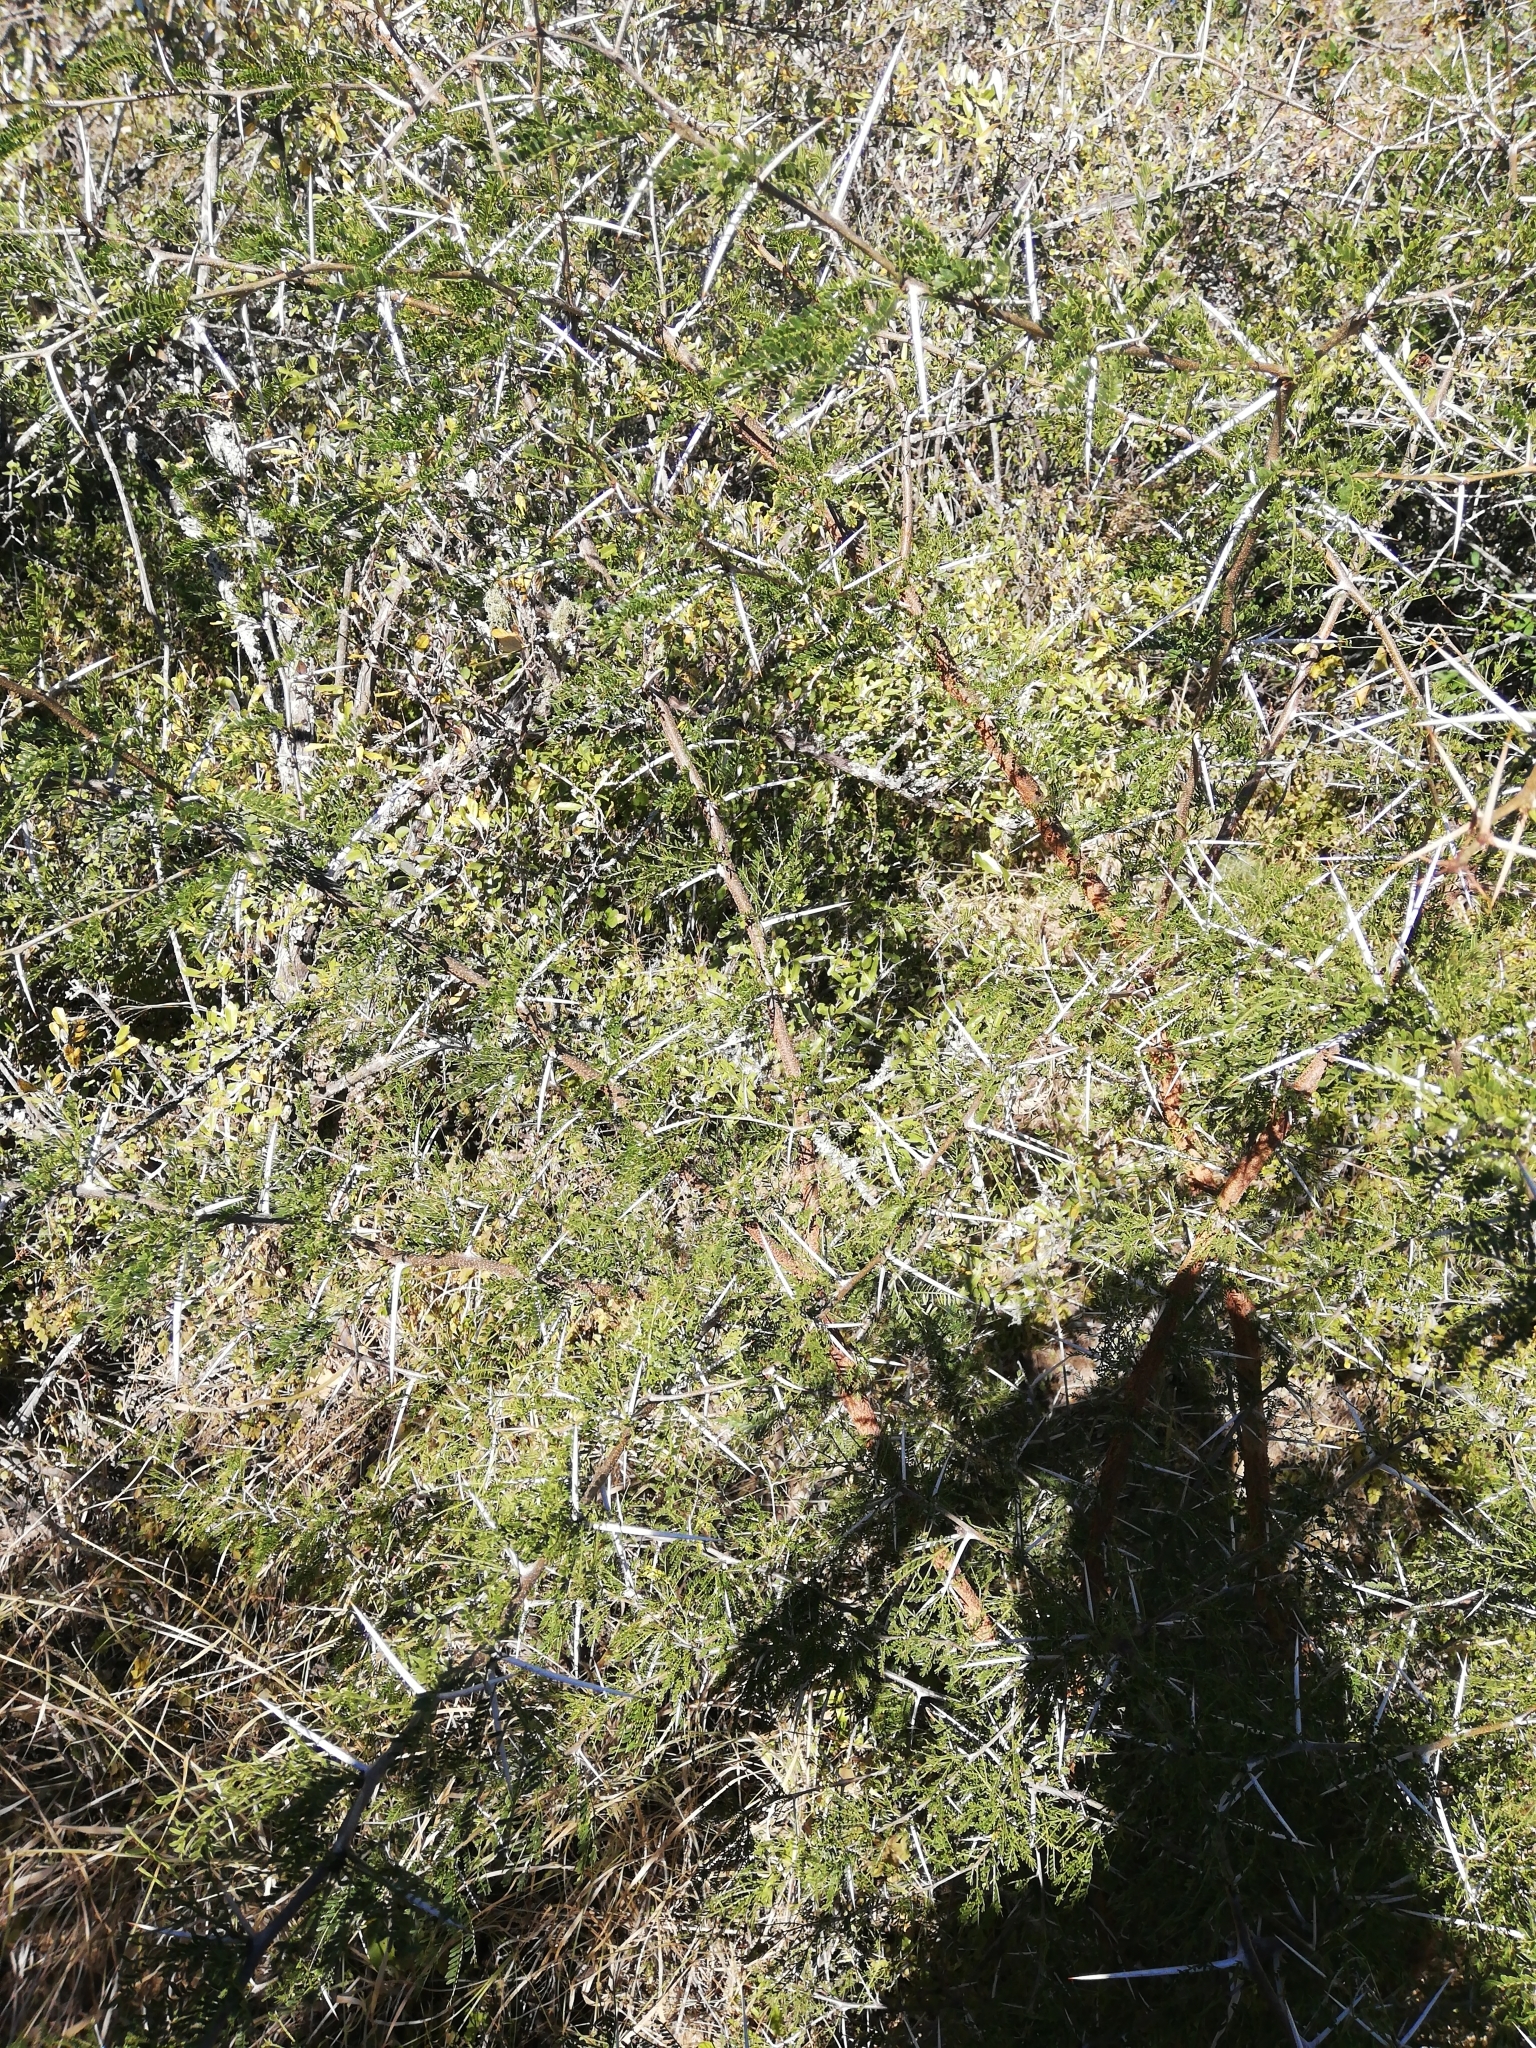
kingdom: Plantae
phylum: Tracheophyta
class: Magnoliopsida
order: Fabales
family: Fabaceae
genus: Vachellia
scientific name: Vachellia karroo
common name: Sweet thorn
